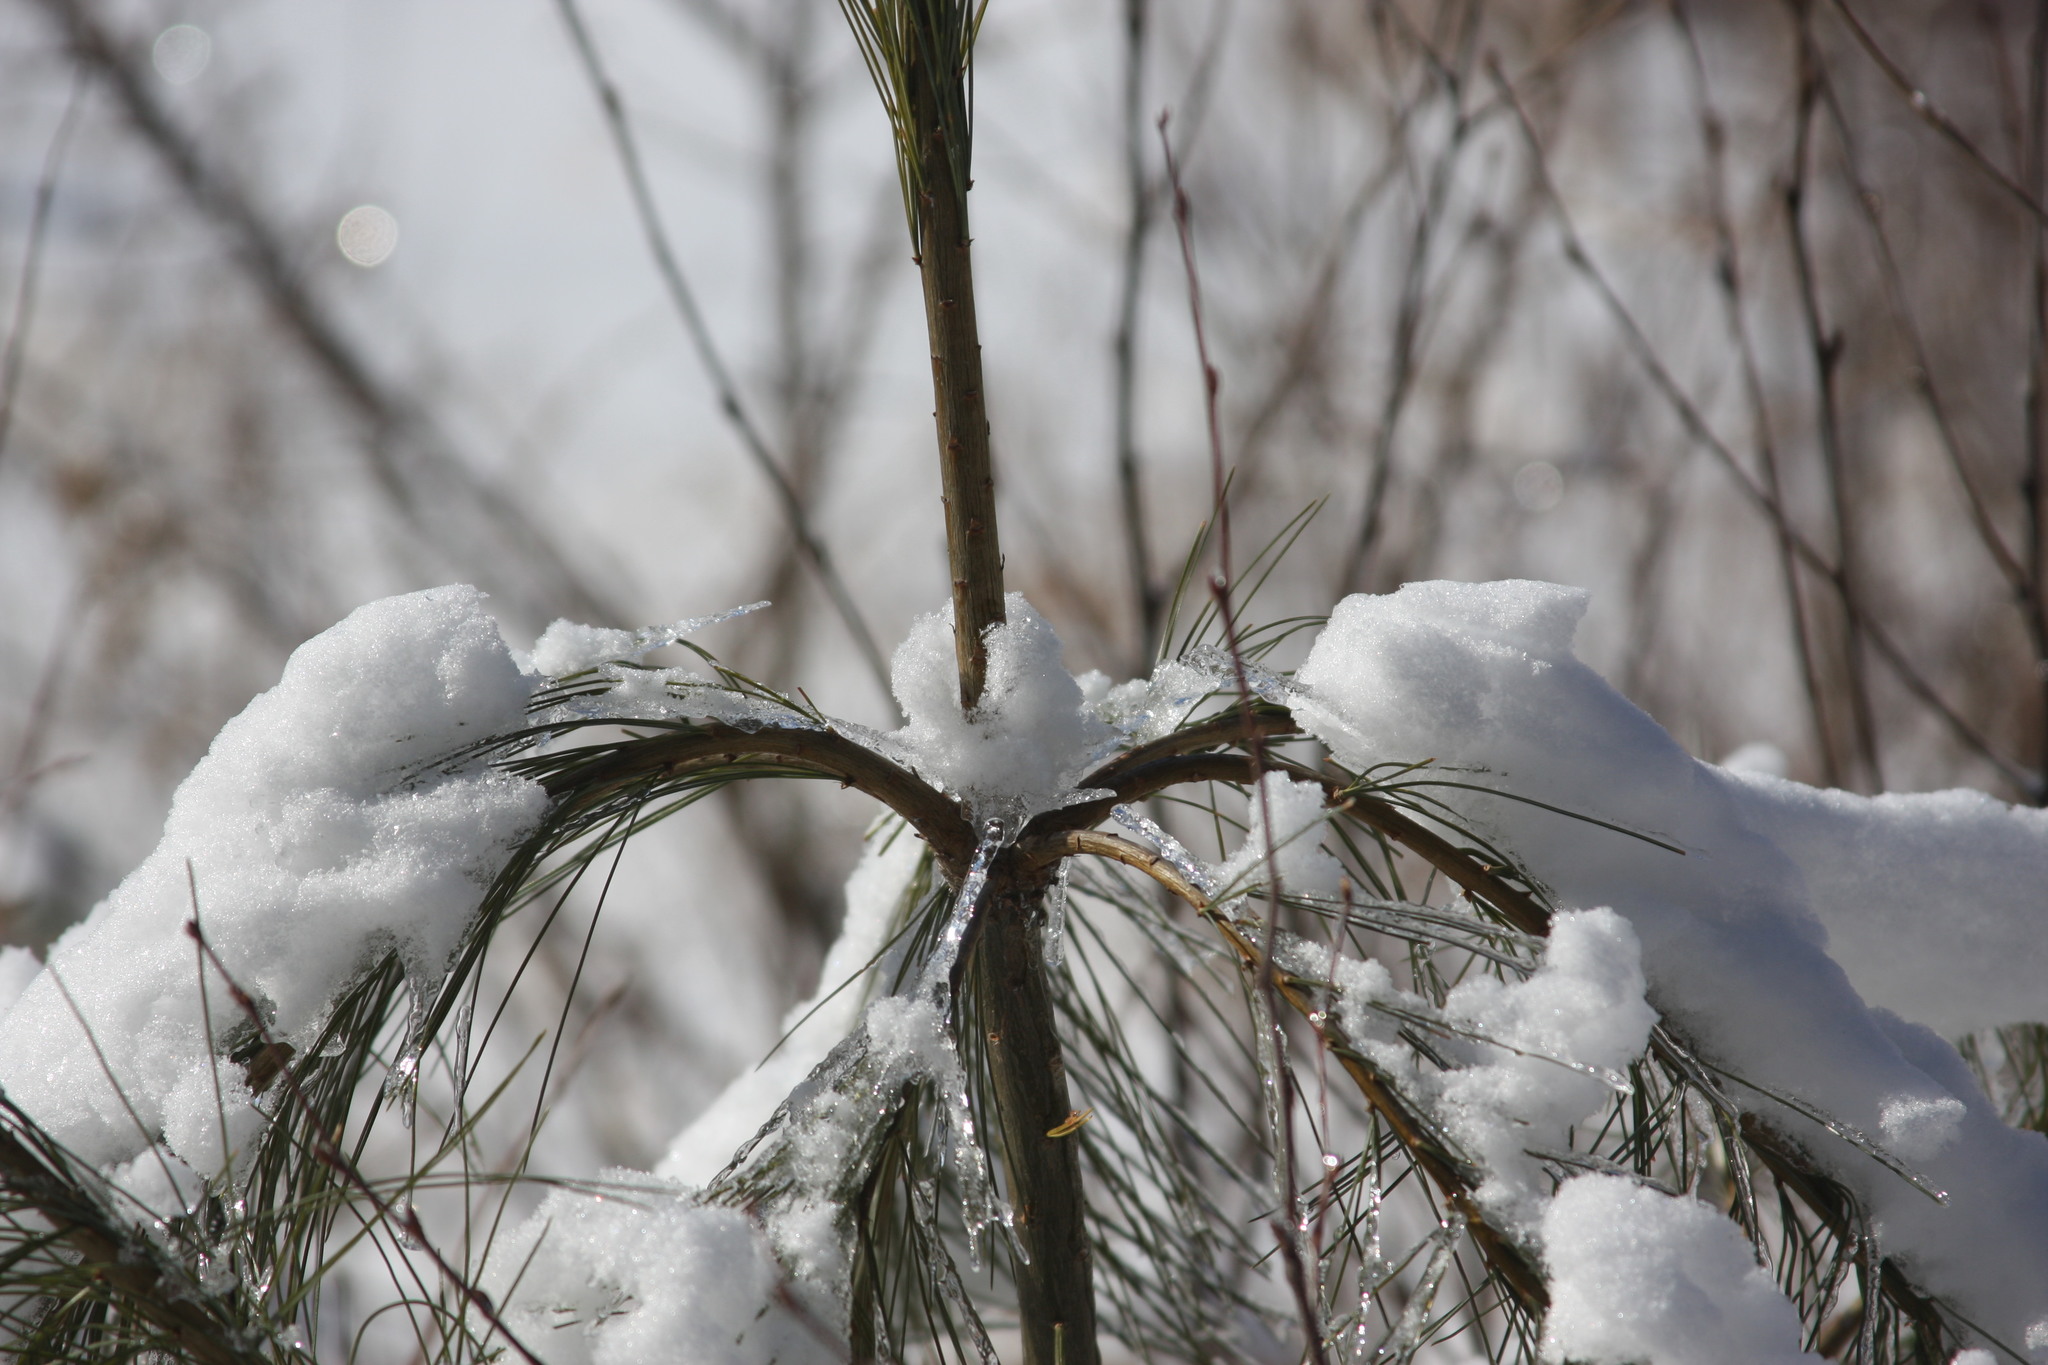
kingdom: Plantae
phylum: Tracheophyta
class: Pinopsida
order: Pinales
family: Pinaceae
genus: Pinus
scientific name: Pinus strobus
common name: Weymouth pine
